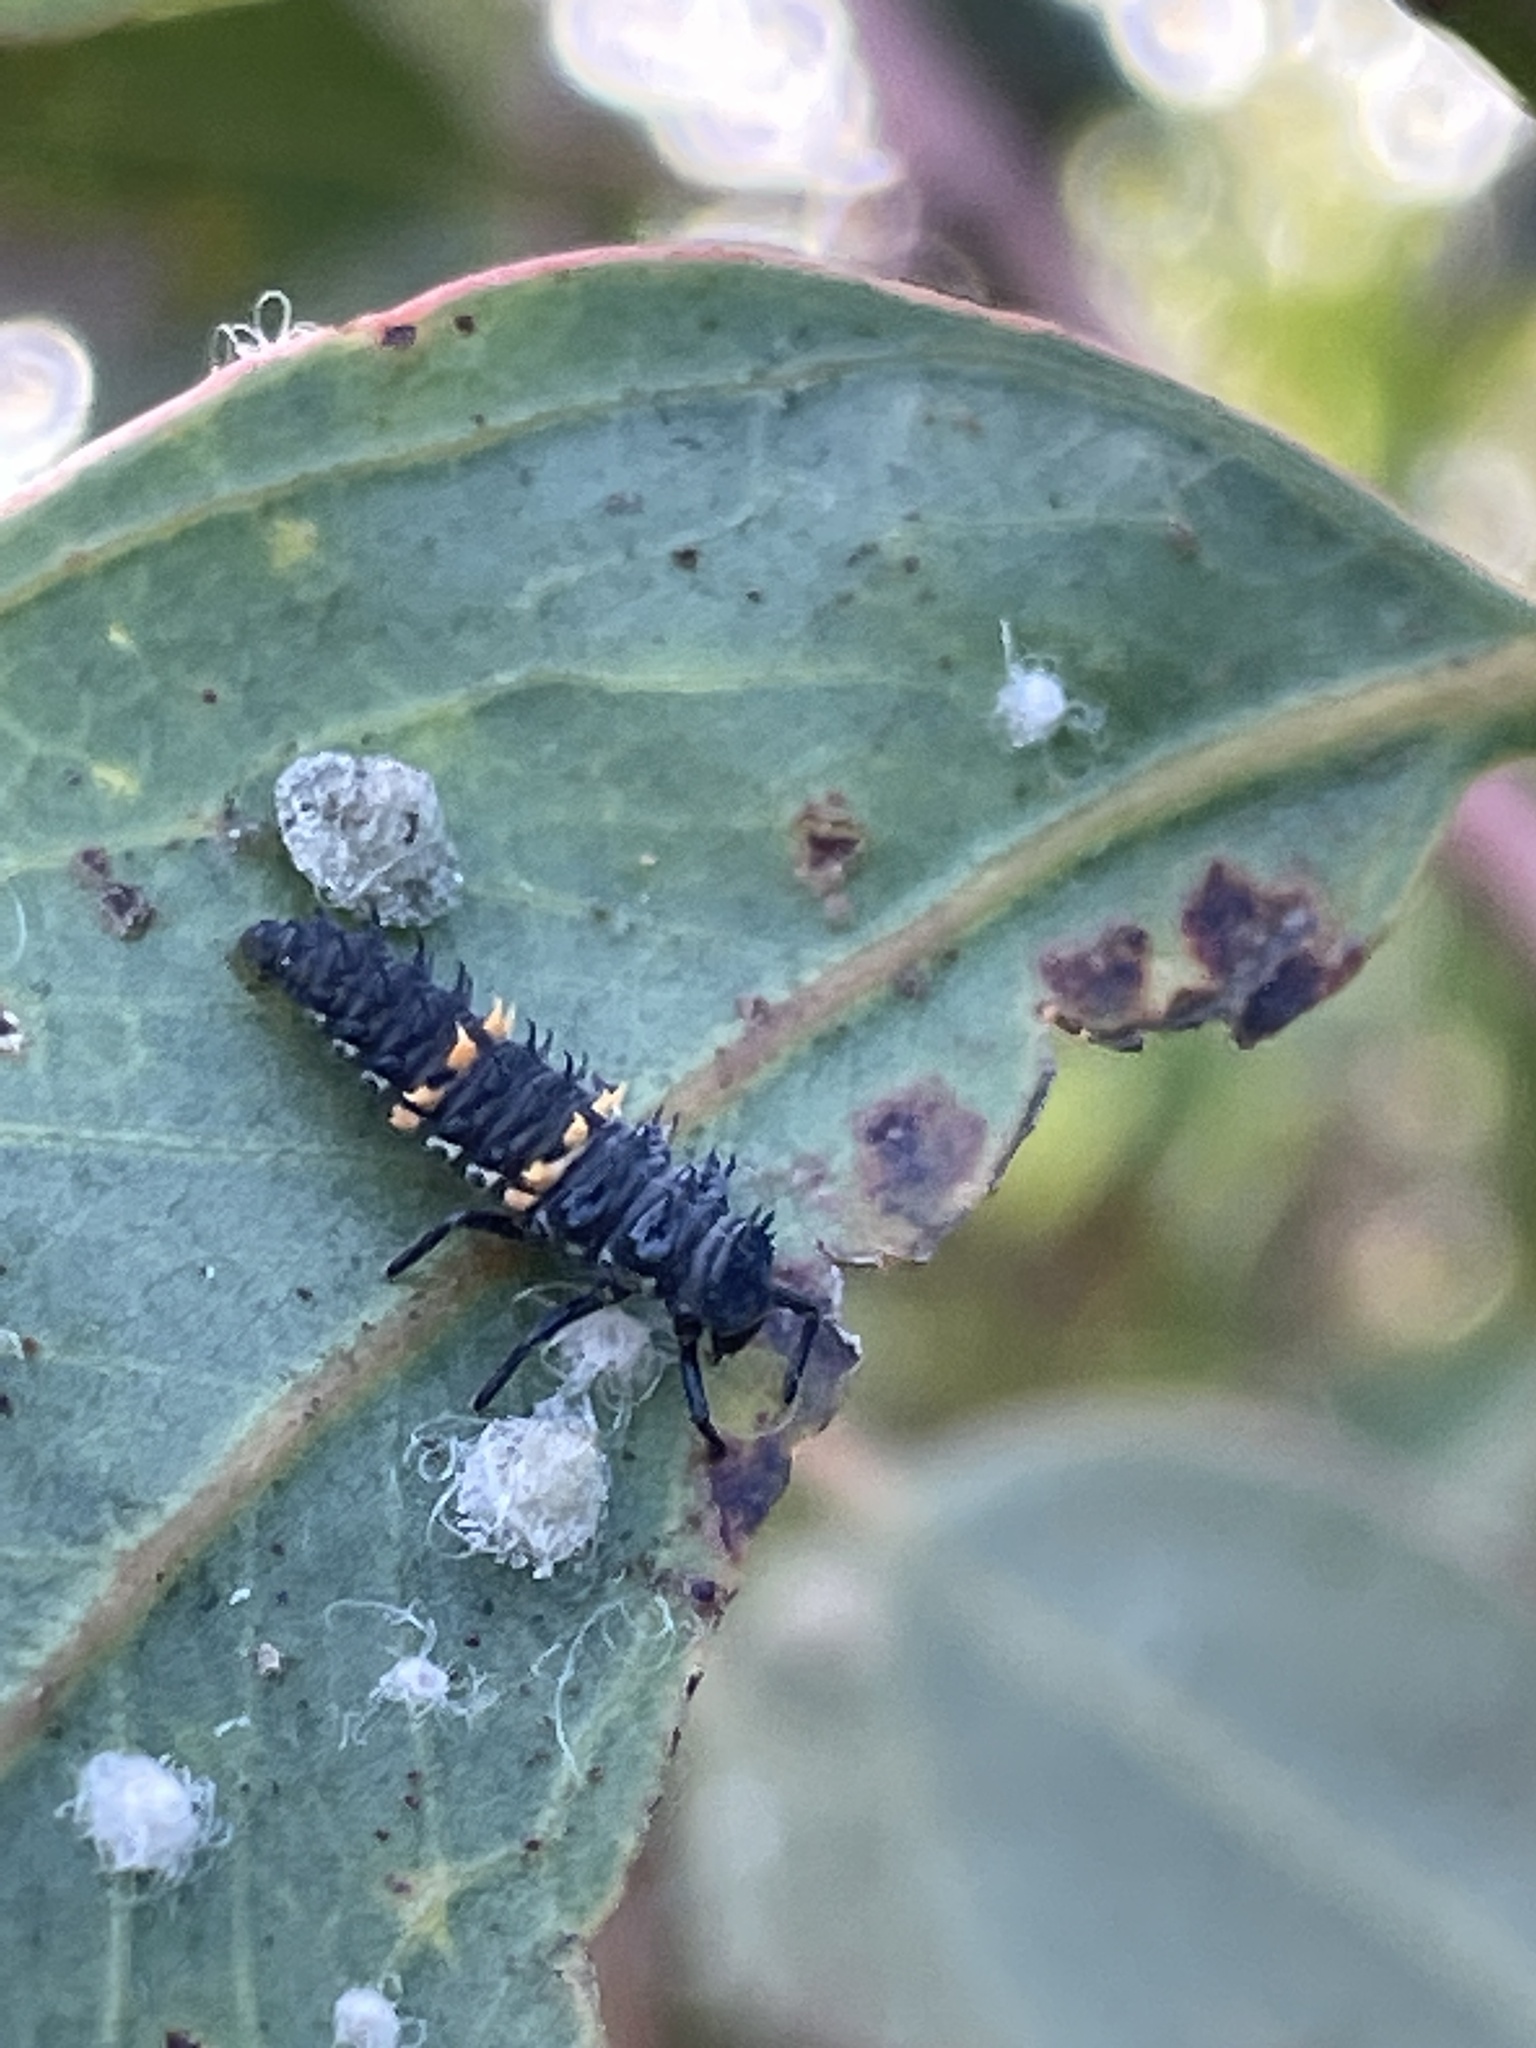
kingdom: Animalia
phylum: Arthropoda
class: Insecta
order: Coleoptera
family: Coccinellidae
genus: Harmonia
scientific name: Harmonia conformis
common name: Common spotted ladybird beetle
